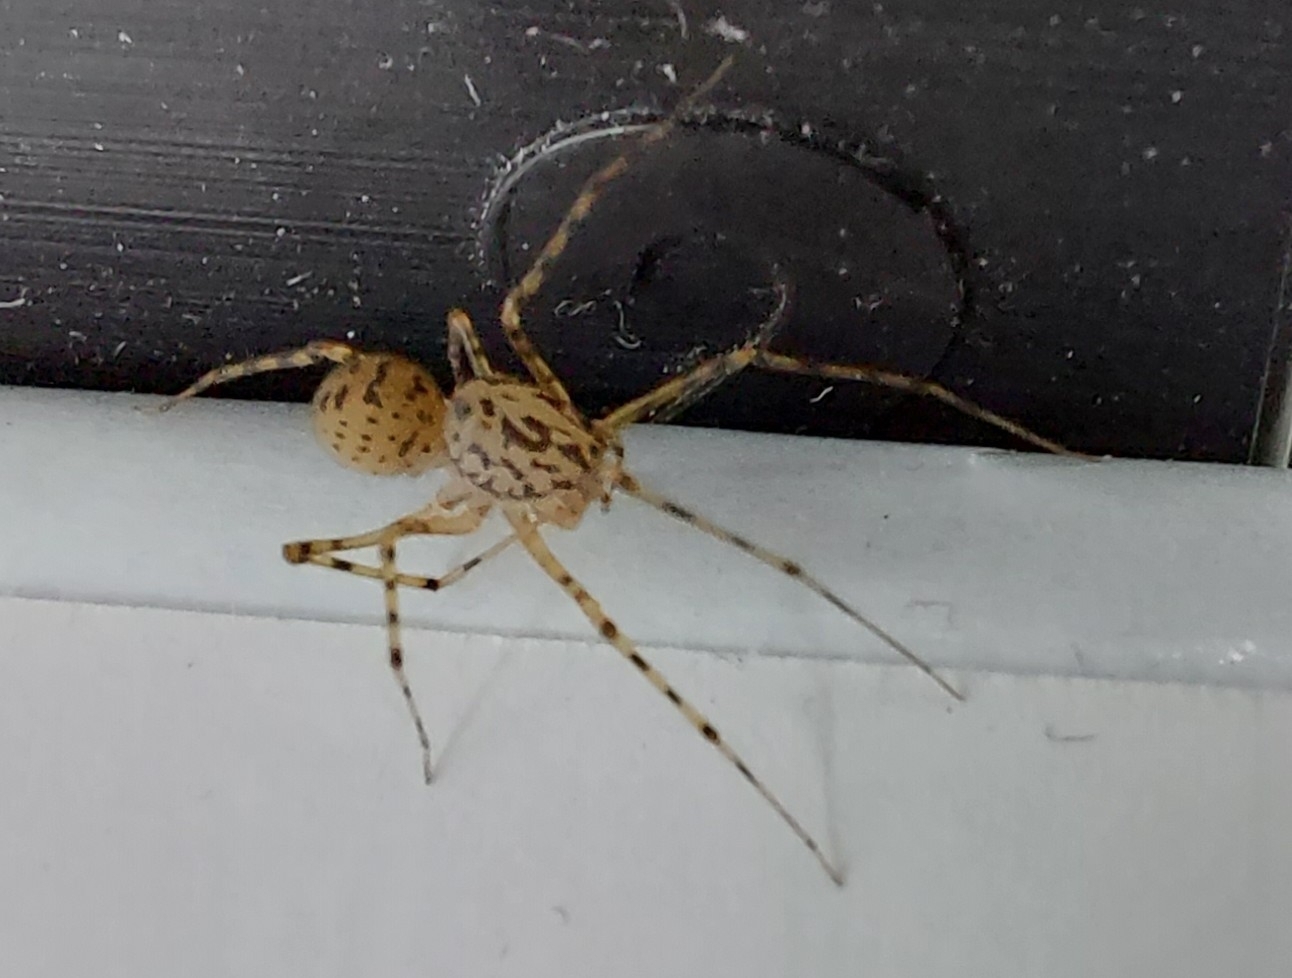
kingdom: Animalia
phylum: Arthropoda
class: Arachnida
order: Araneae
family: Scytodidae
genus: Scytodes
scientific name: Scytodes thoracica
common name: Spitting spider
